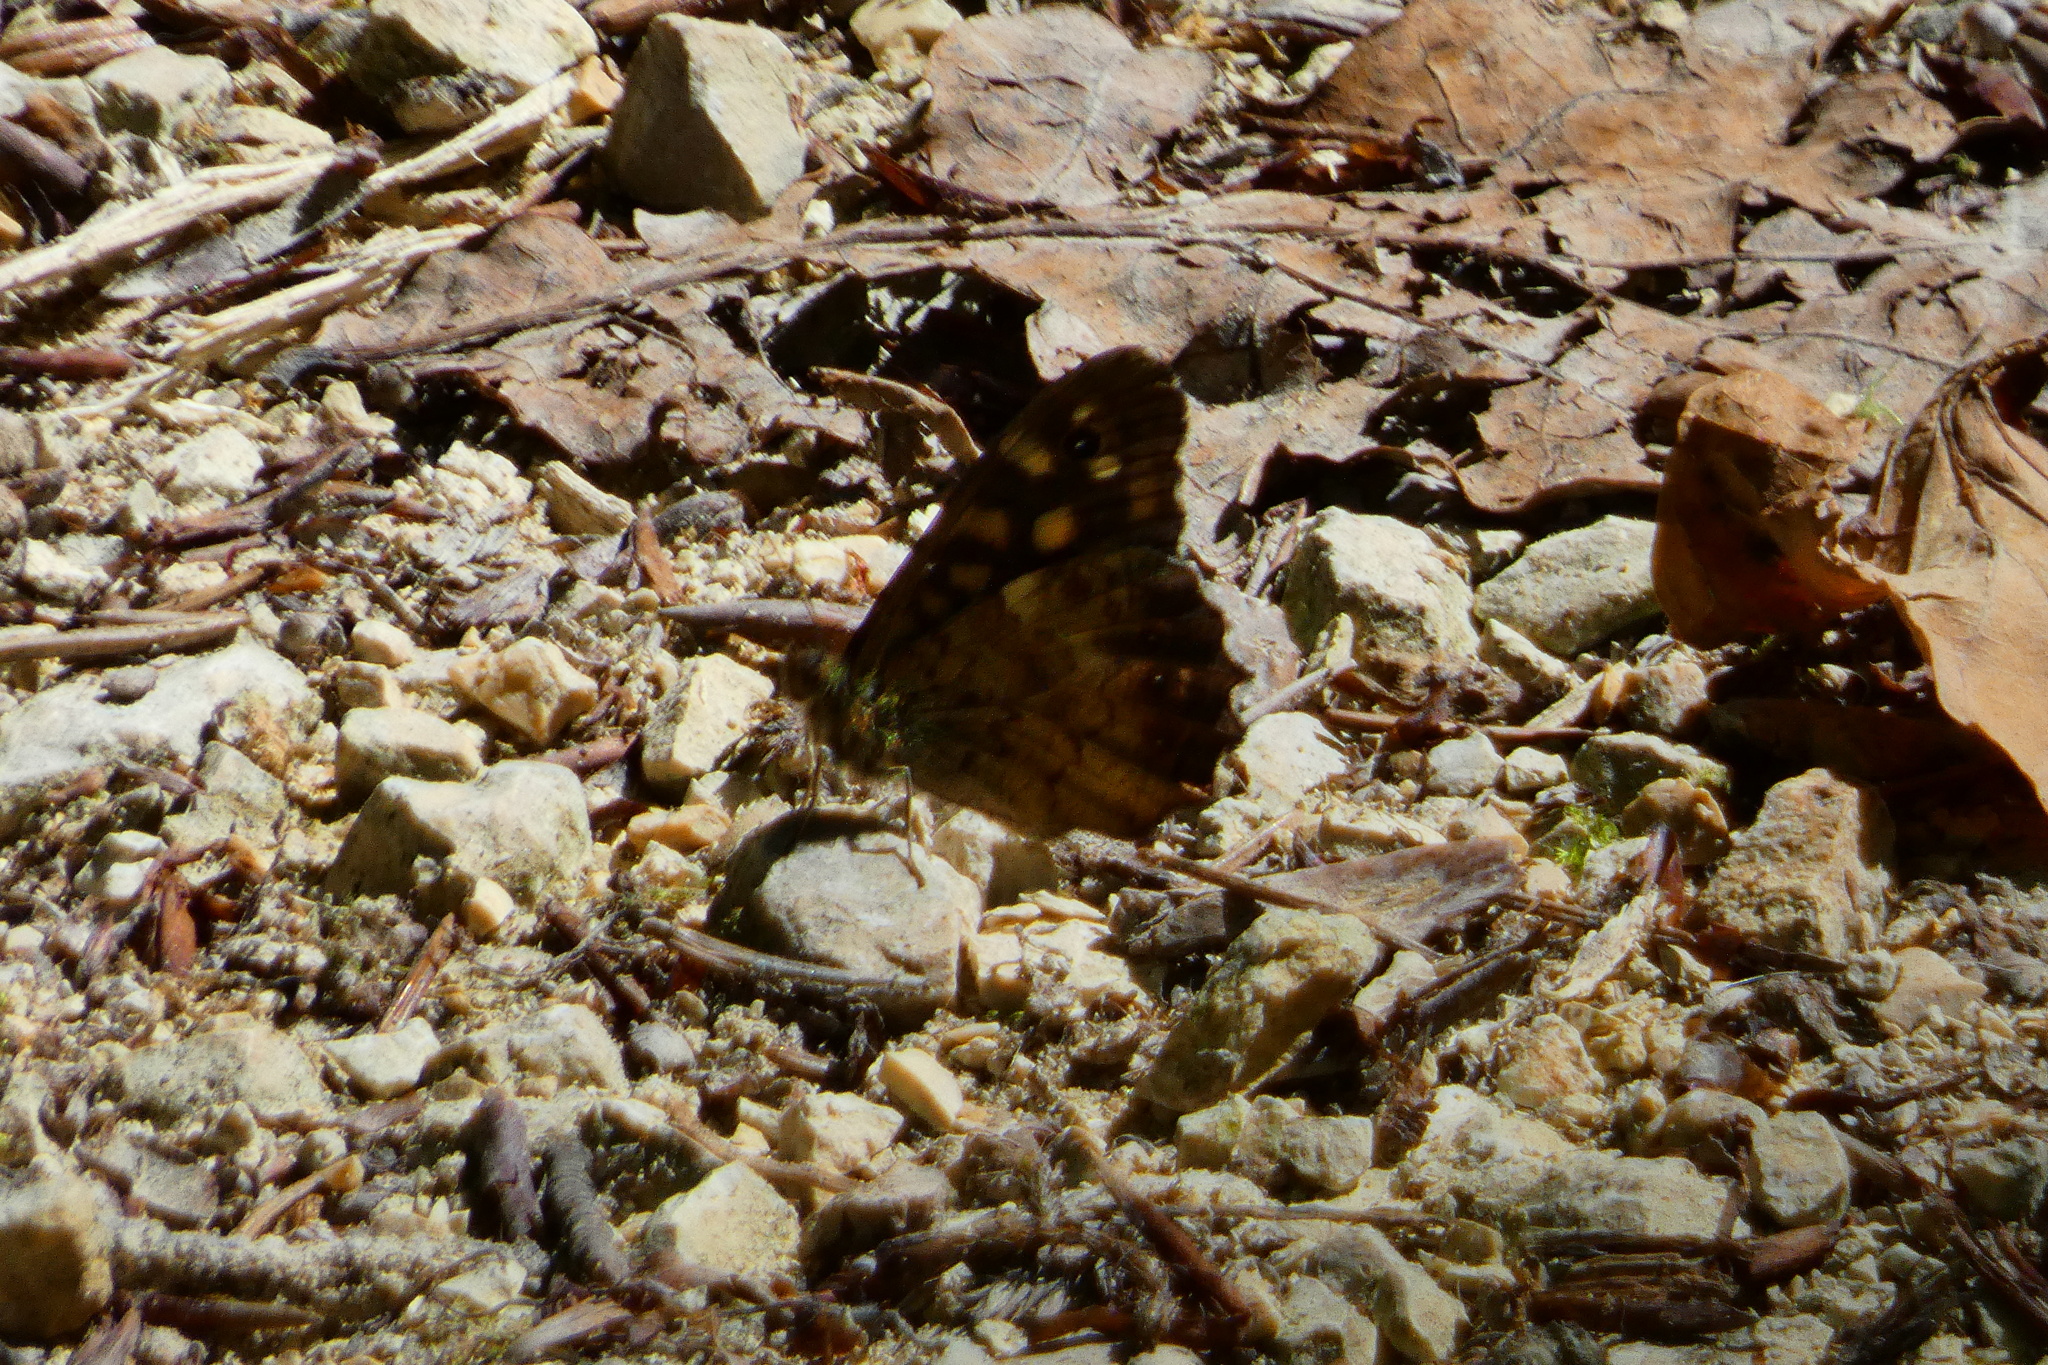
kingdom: Animalia
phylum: Arthropoda
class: Insecta
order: Lepidoptera
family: Nymphalidae
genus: Pararge
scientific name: Pararge aegeria
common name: Speckled wood
